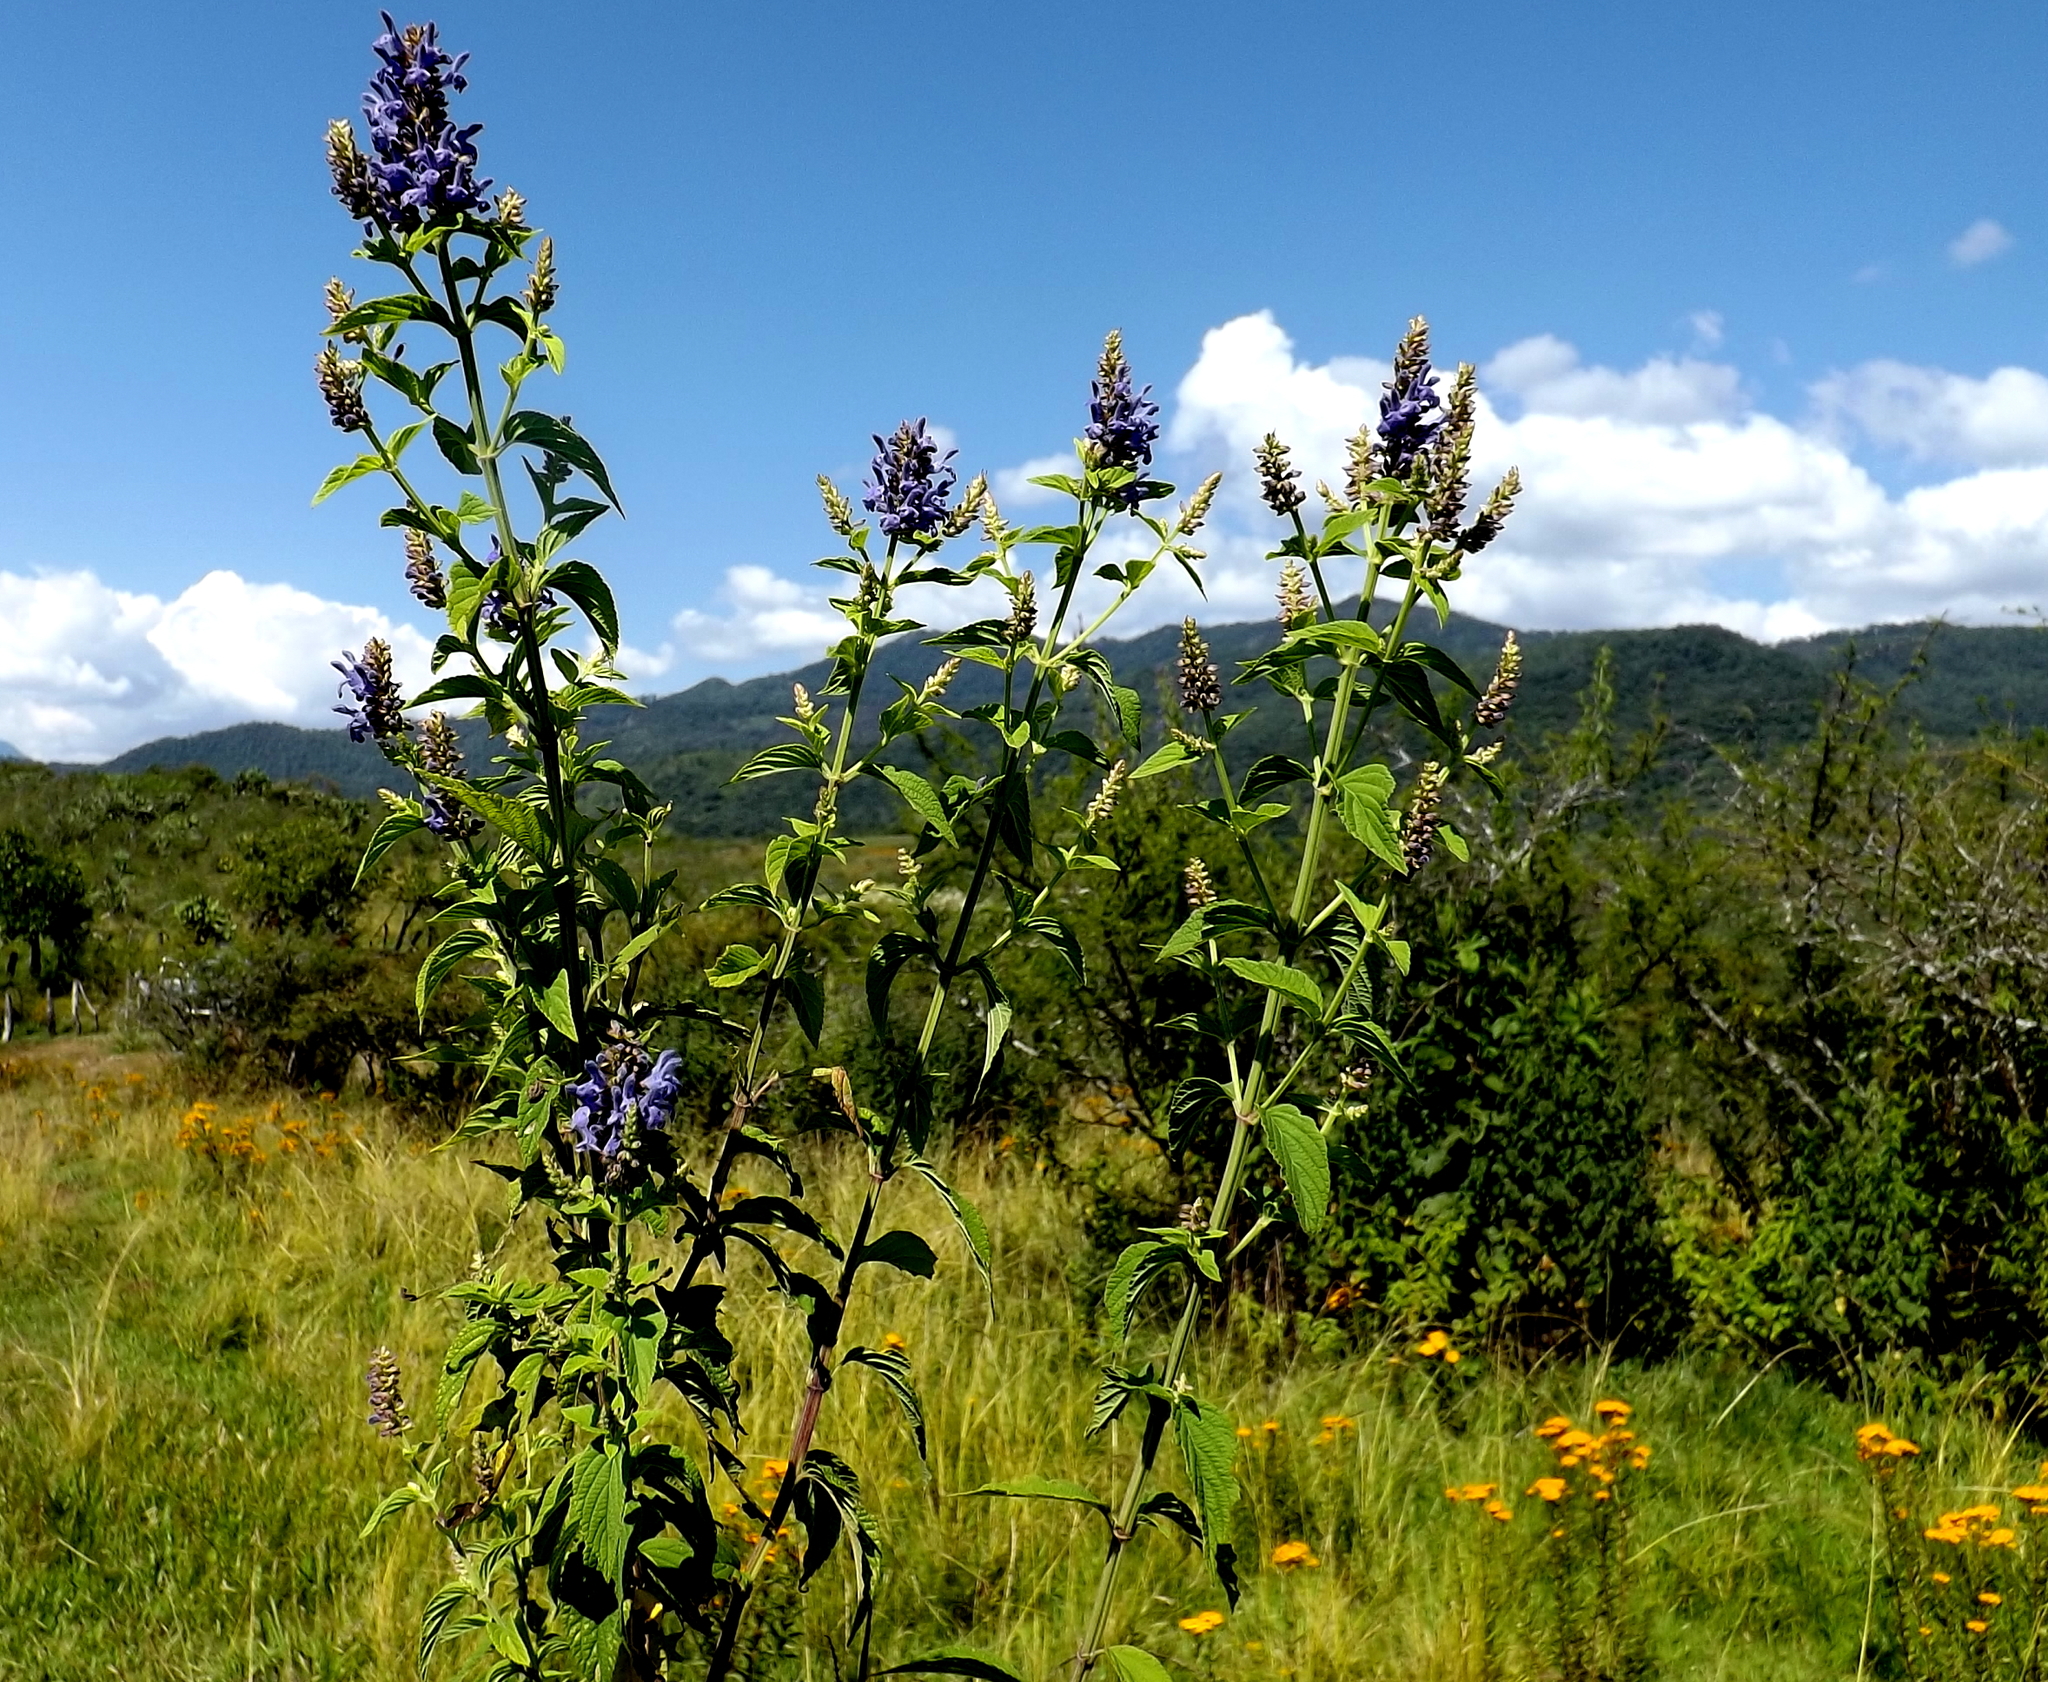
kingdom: Plantae
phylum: Tracheophyta
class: Magnoliopsida
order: Lamiales
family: Lamiaceae
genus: Salvia
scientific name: Salvia polystachia
